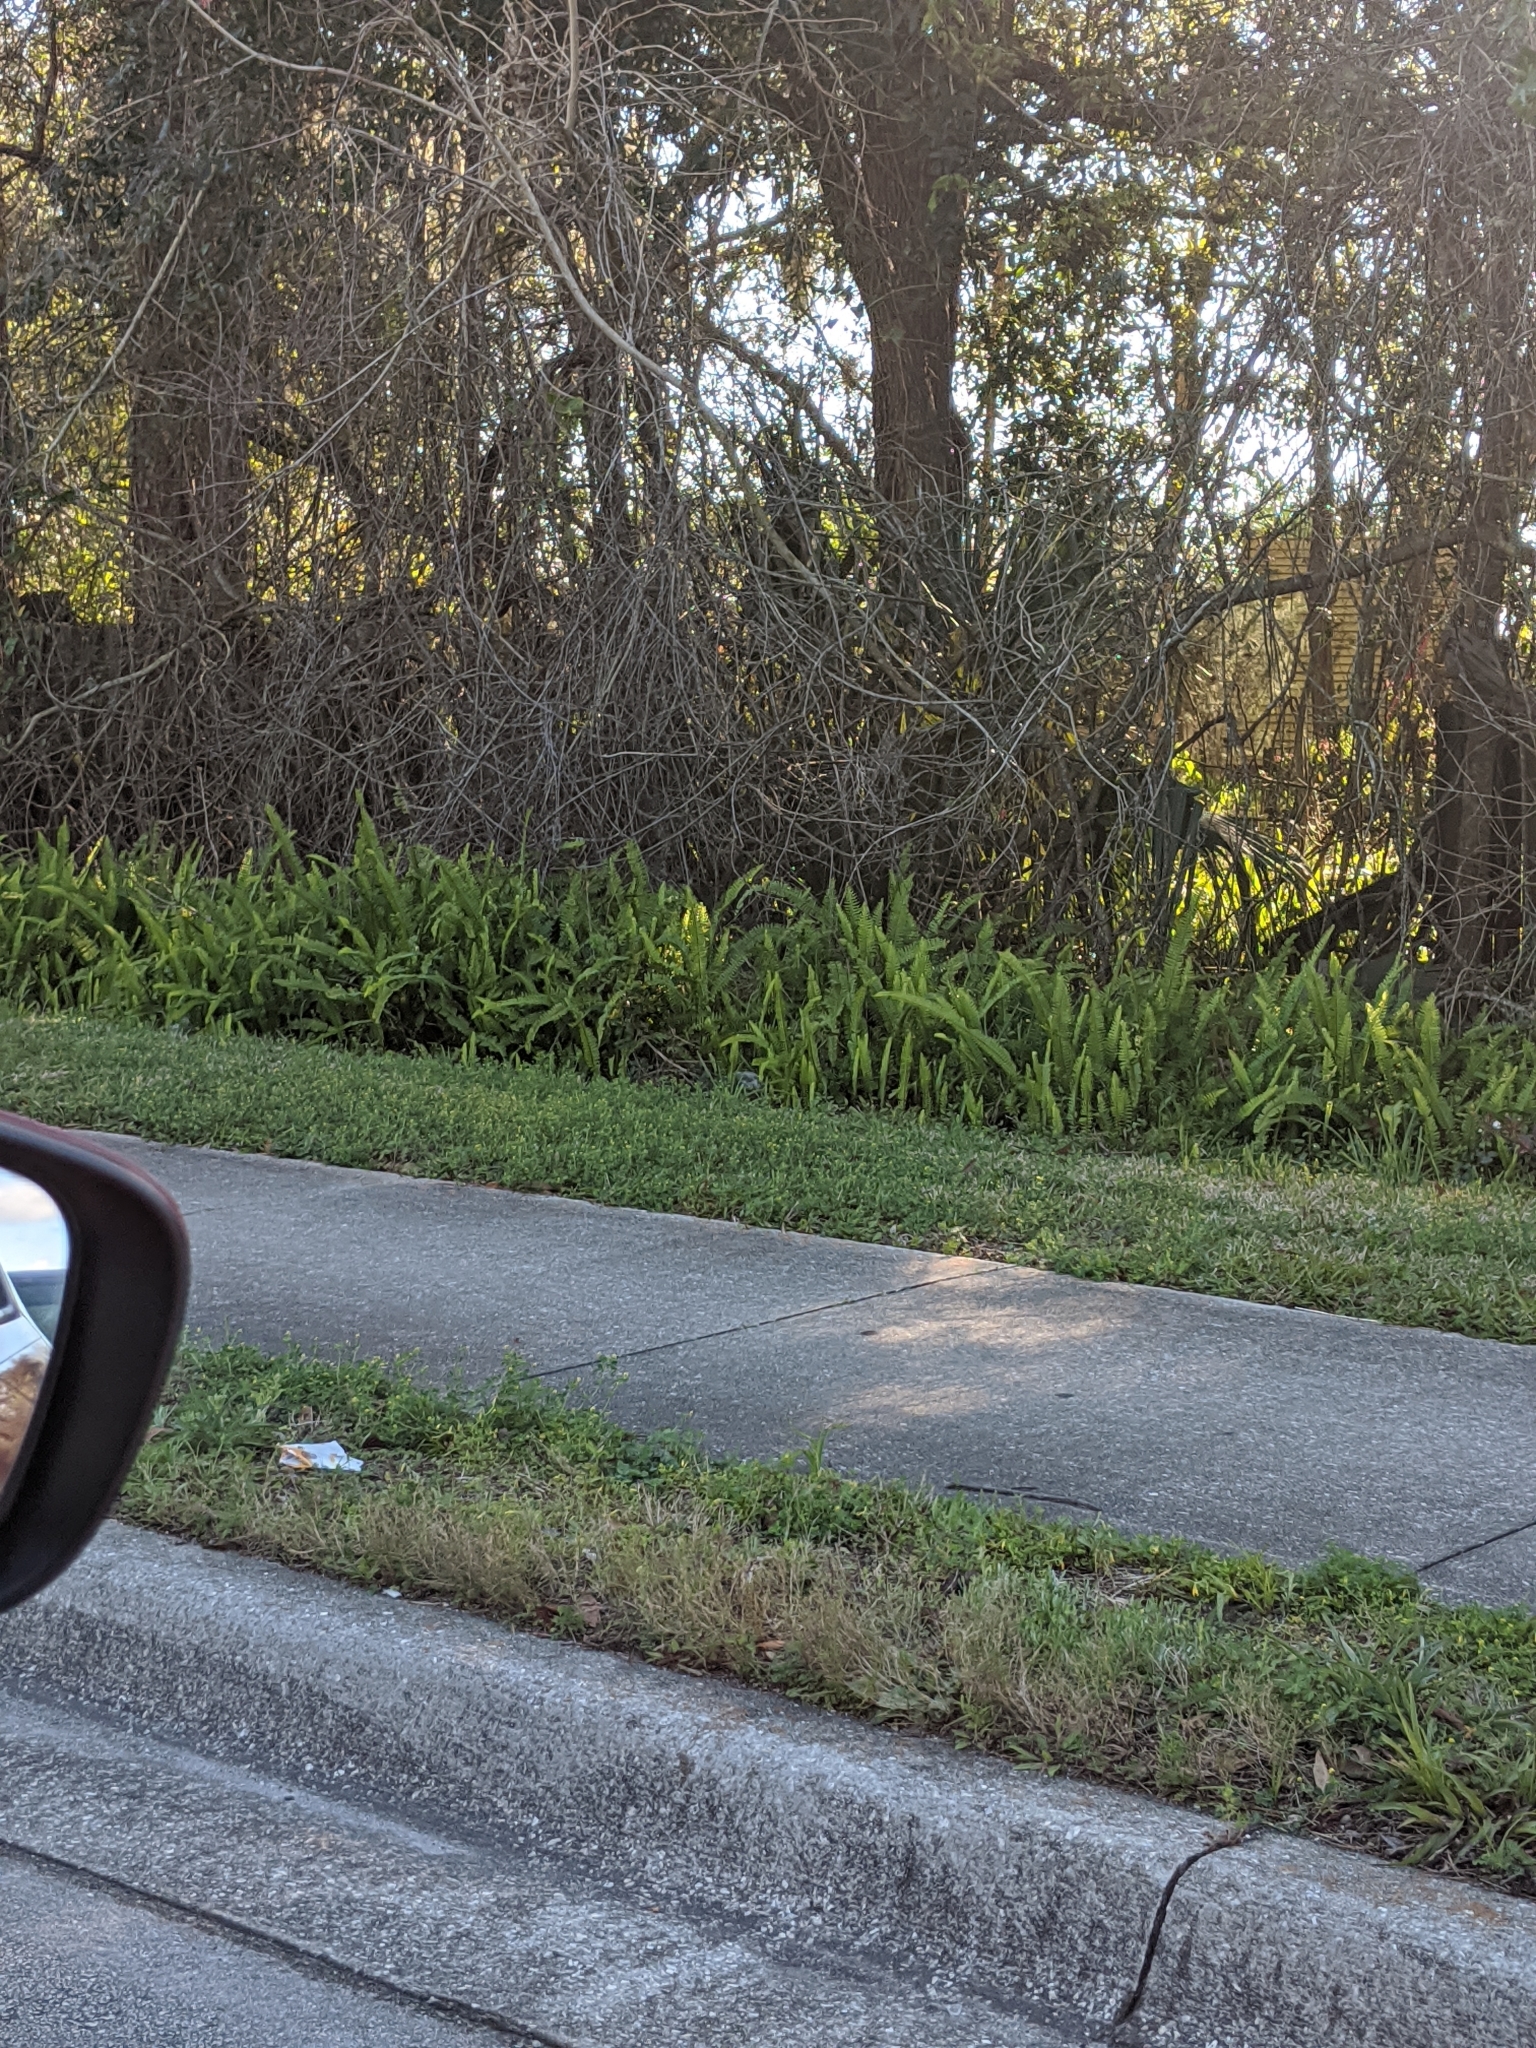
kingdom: Plantae
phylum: Tracheophyta
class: Polypodiopsida
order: Polypodiales
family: Nephrolepidaceae
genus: Nephrolepis
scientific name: Nephrolepis cordifolia
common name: Narrow swordfern
